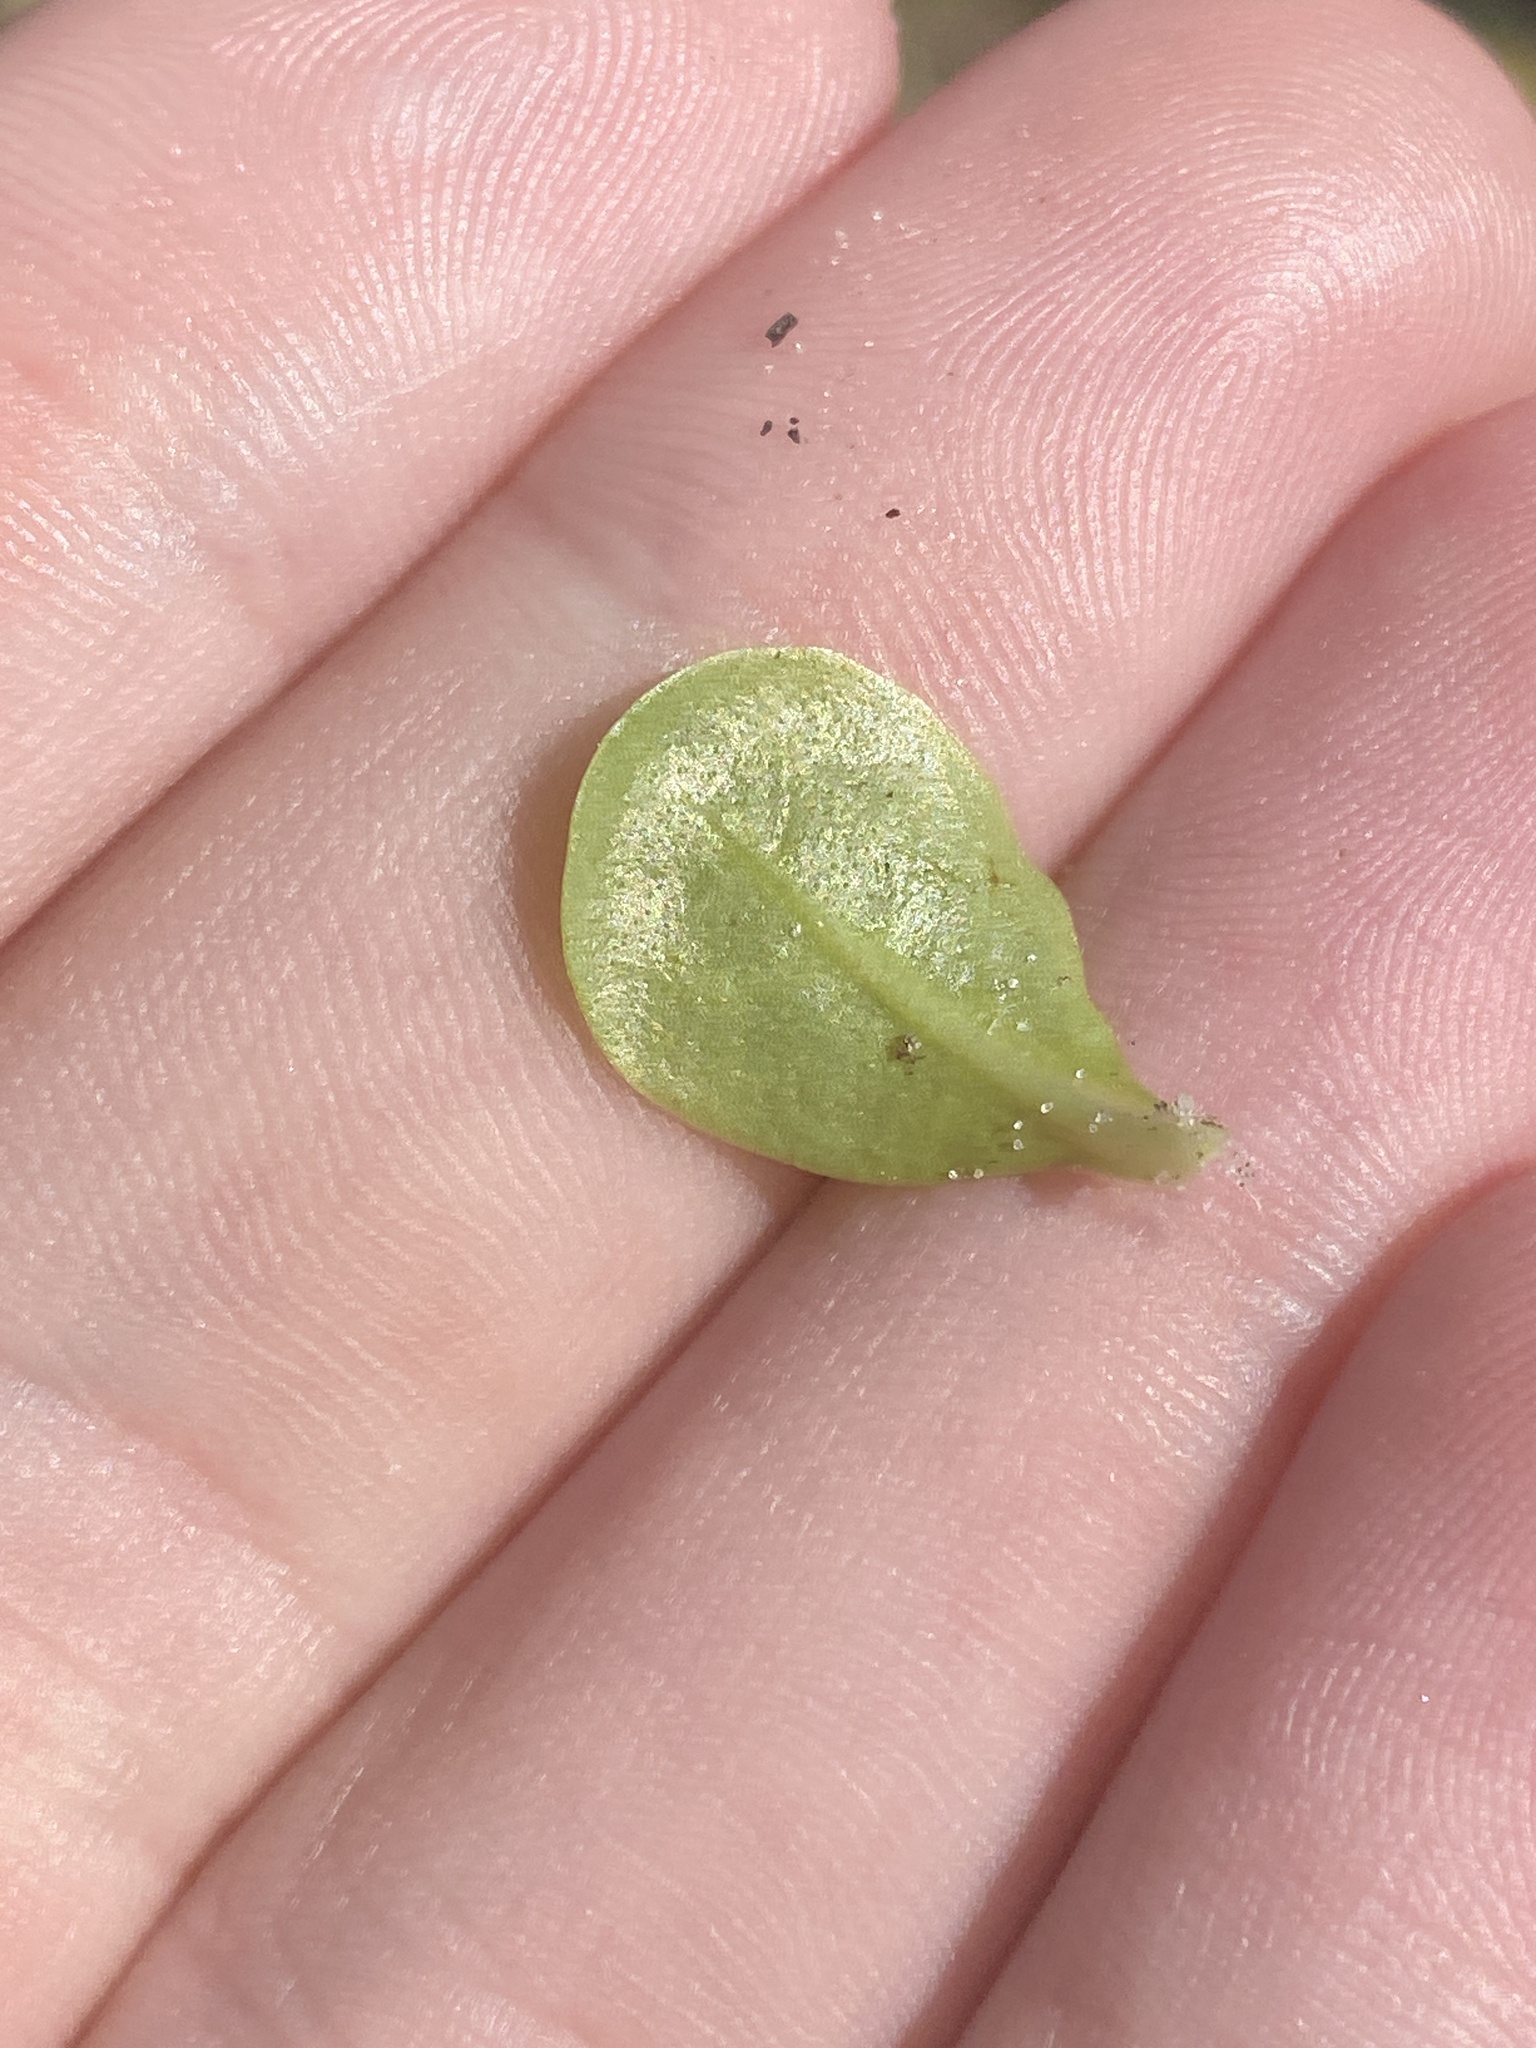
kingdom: Plantae
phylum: Tracheophyta
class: Magnoliopsida
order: Ericales
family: Primulaceae
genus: Samolus
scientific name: Samolus parviflorus
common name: False water pimpernel
